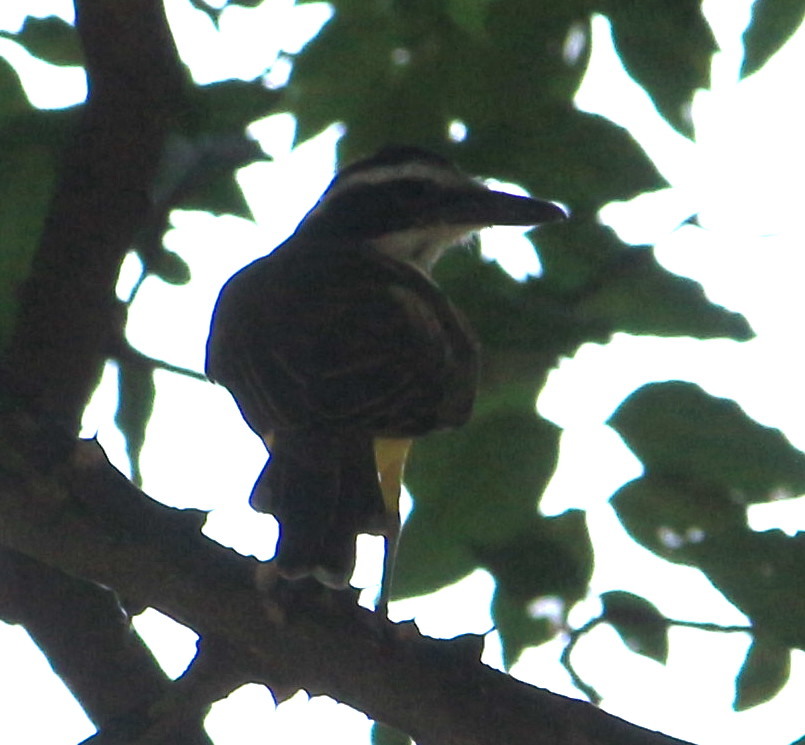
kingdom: Animalia
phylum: Chordata
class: Aves
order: Passeriformes
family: Tyrannidae
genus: Pitangus
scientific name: Pitangus sulphuratus
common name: Great kiskadee
